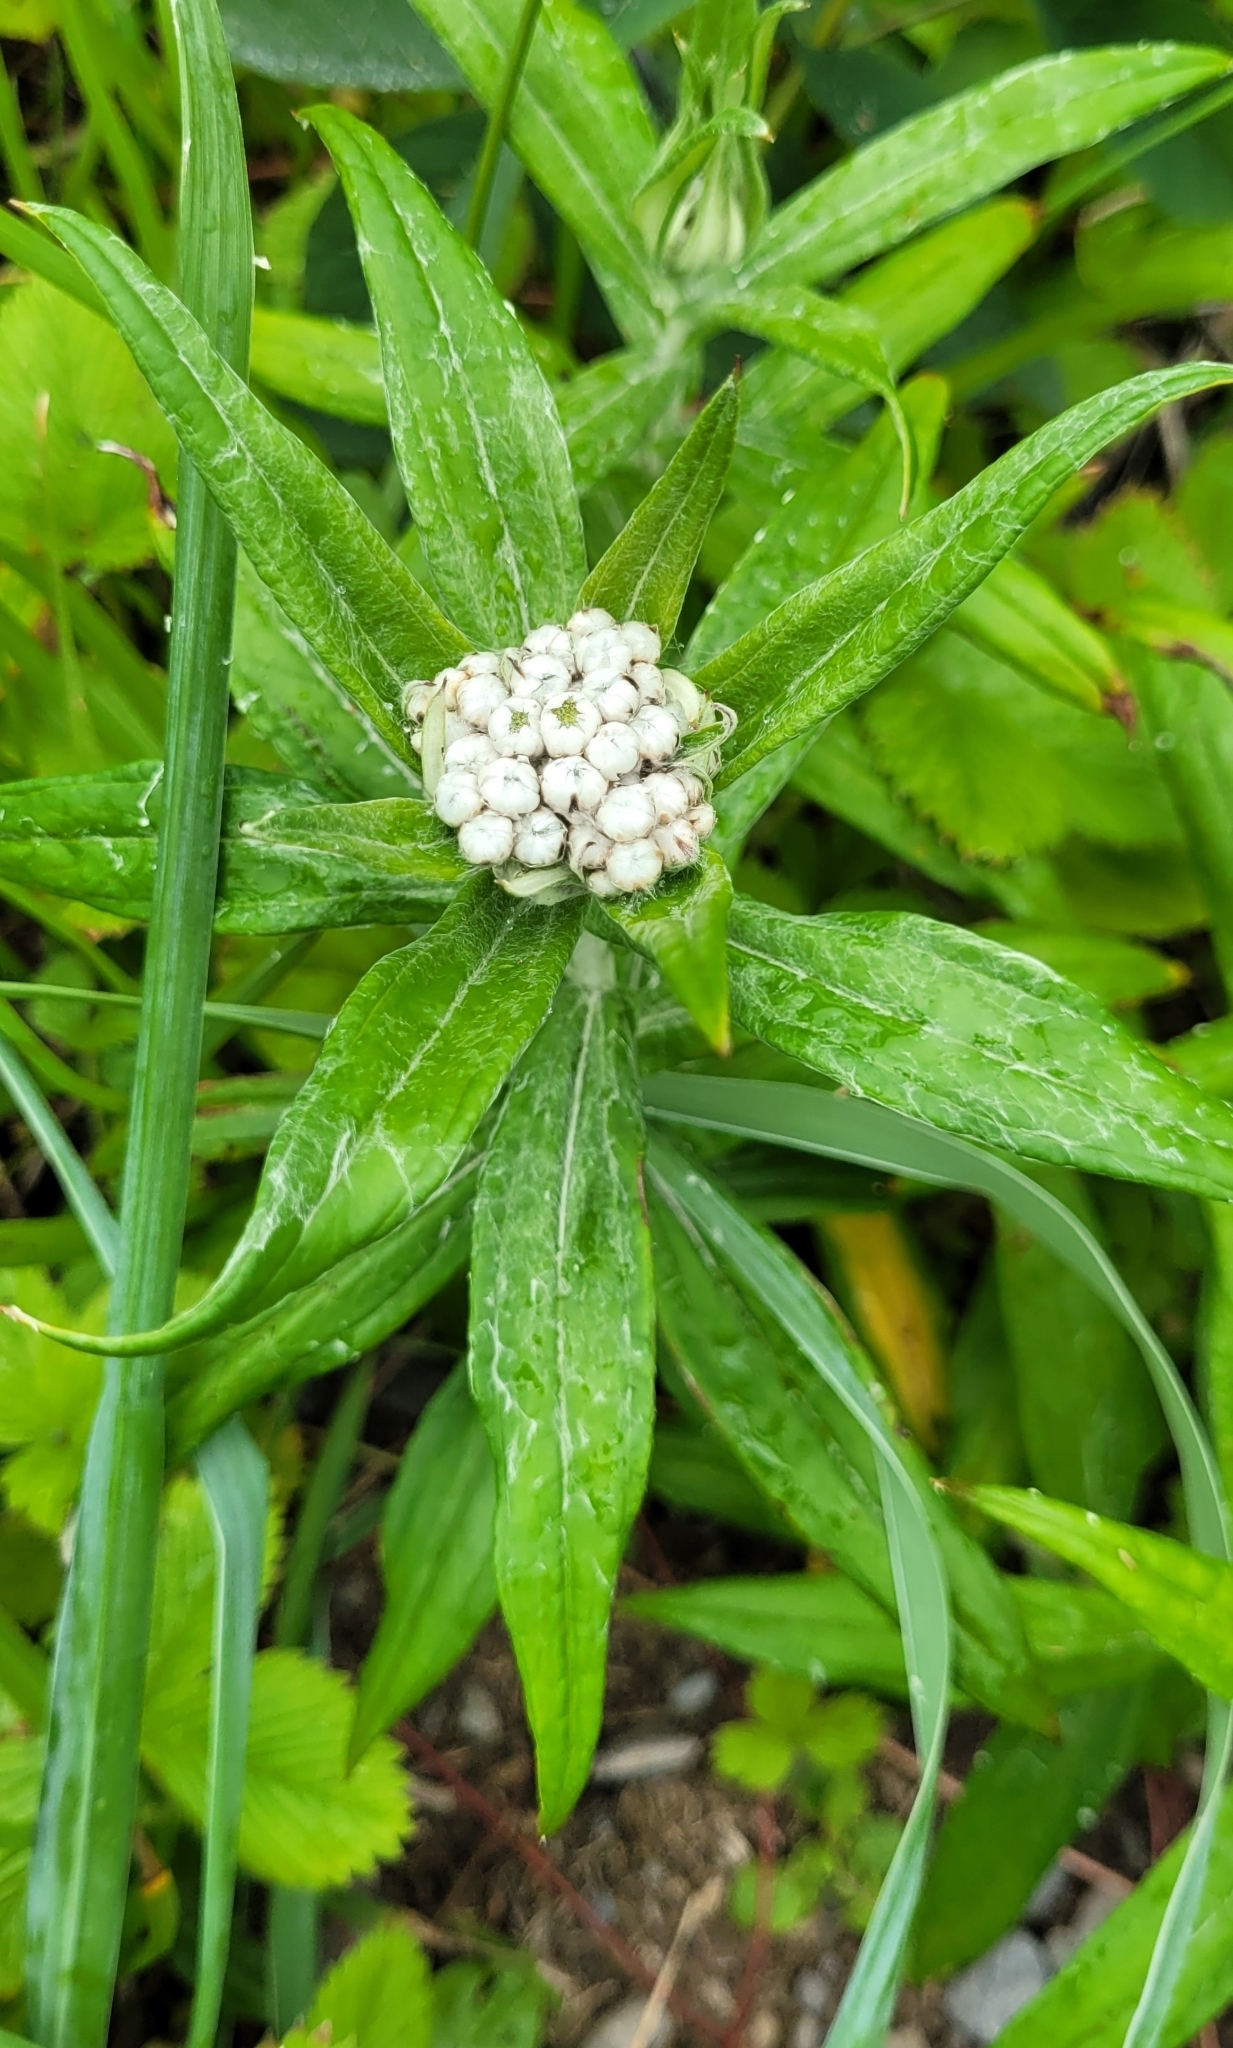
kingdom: Plantae
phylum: Tracheophyta
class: Magnoliopsida
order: Asterales
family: Asteraceae
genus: Anaphalis
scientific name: Anaphalis margaritacea
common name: Pearly everlasting
